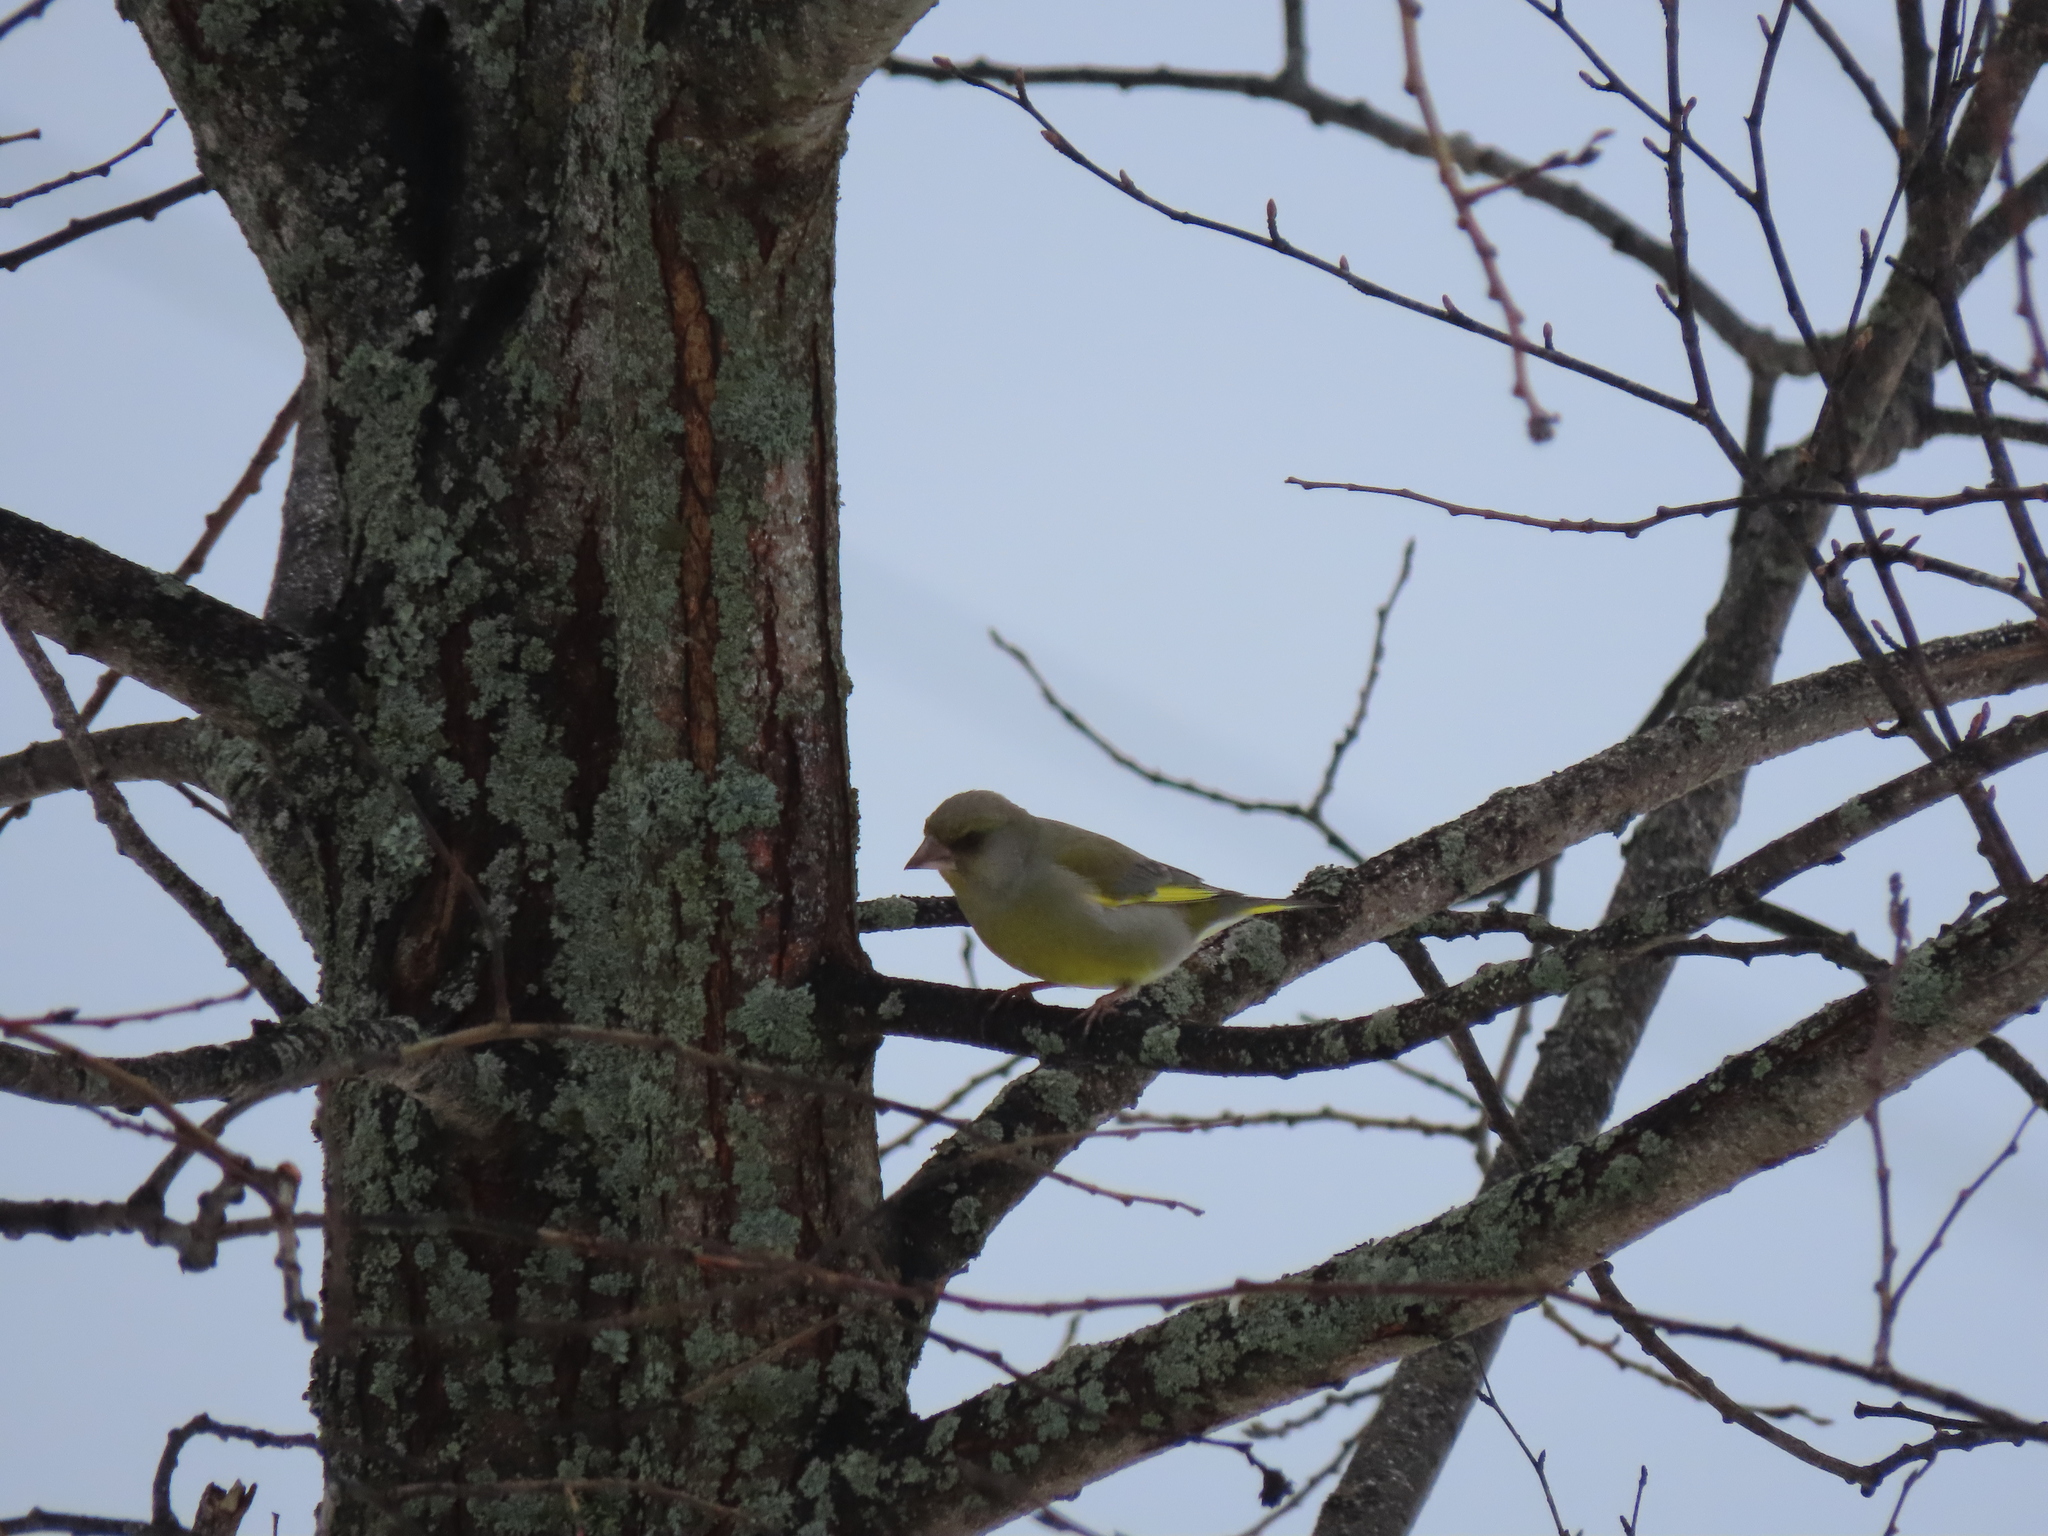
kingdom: Plantae
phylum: Tracheophyta
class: Liliopsida
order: Poales
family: Poaceae
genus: Chloris
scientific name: Chloris chloris
